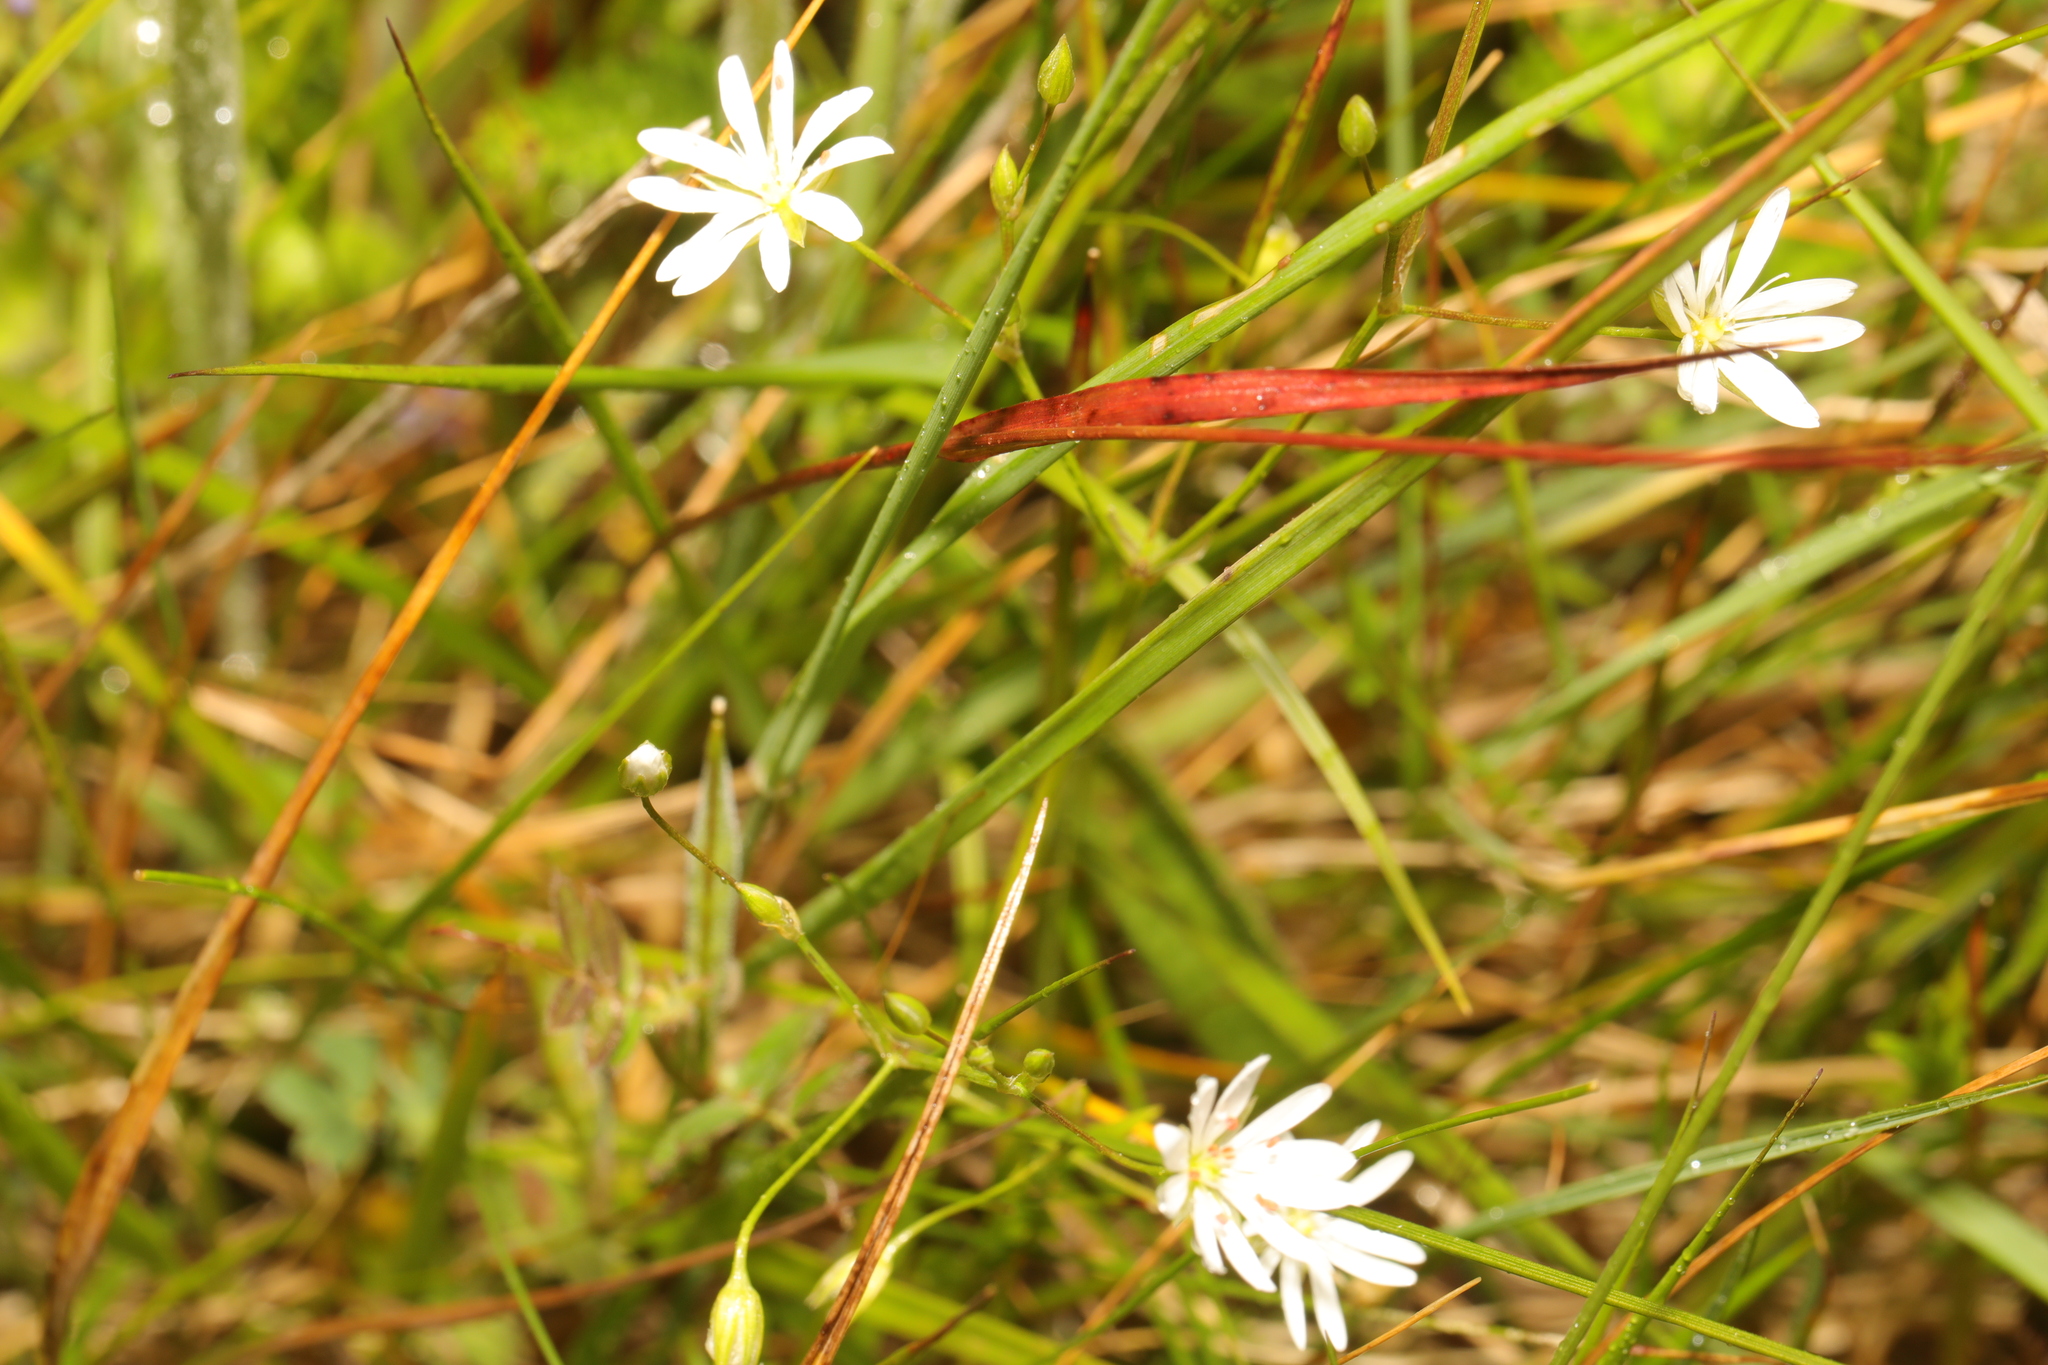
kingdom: Plantae
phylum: Tracheophyta
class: Magnoliopsida
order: Caryophyllales
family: Caryophyllaceae
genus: Stellaria
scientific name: Stellaria graminea
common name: Grass-like starwort
